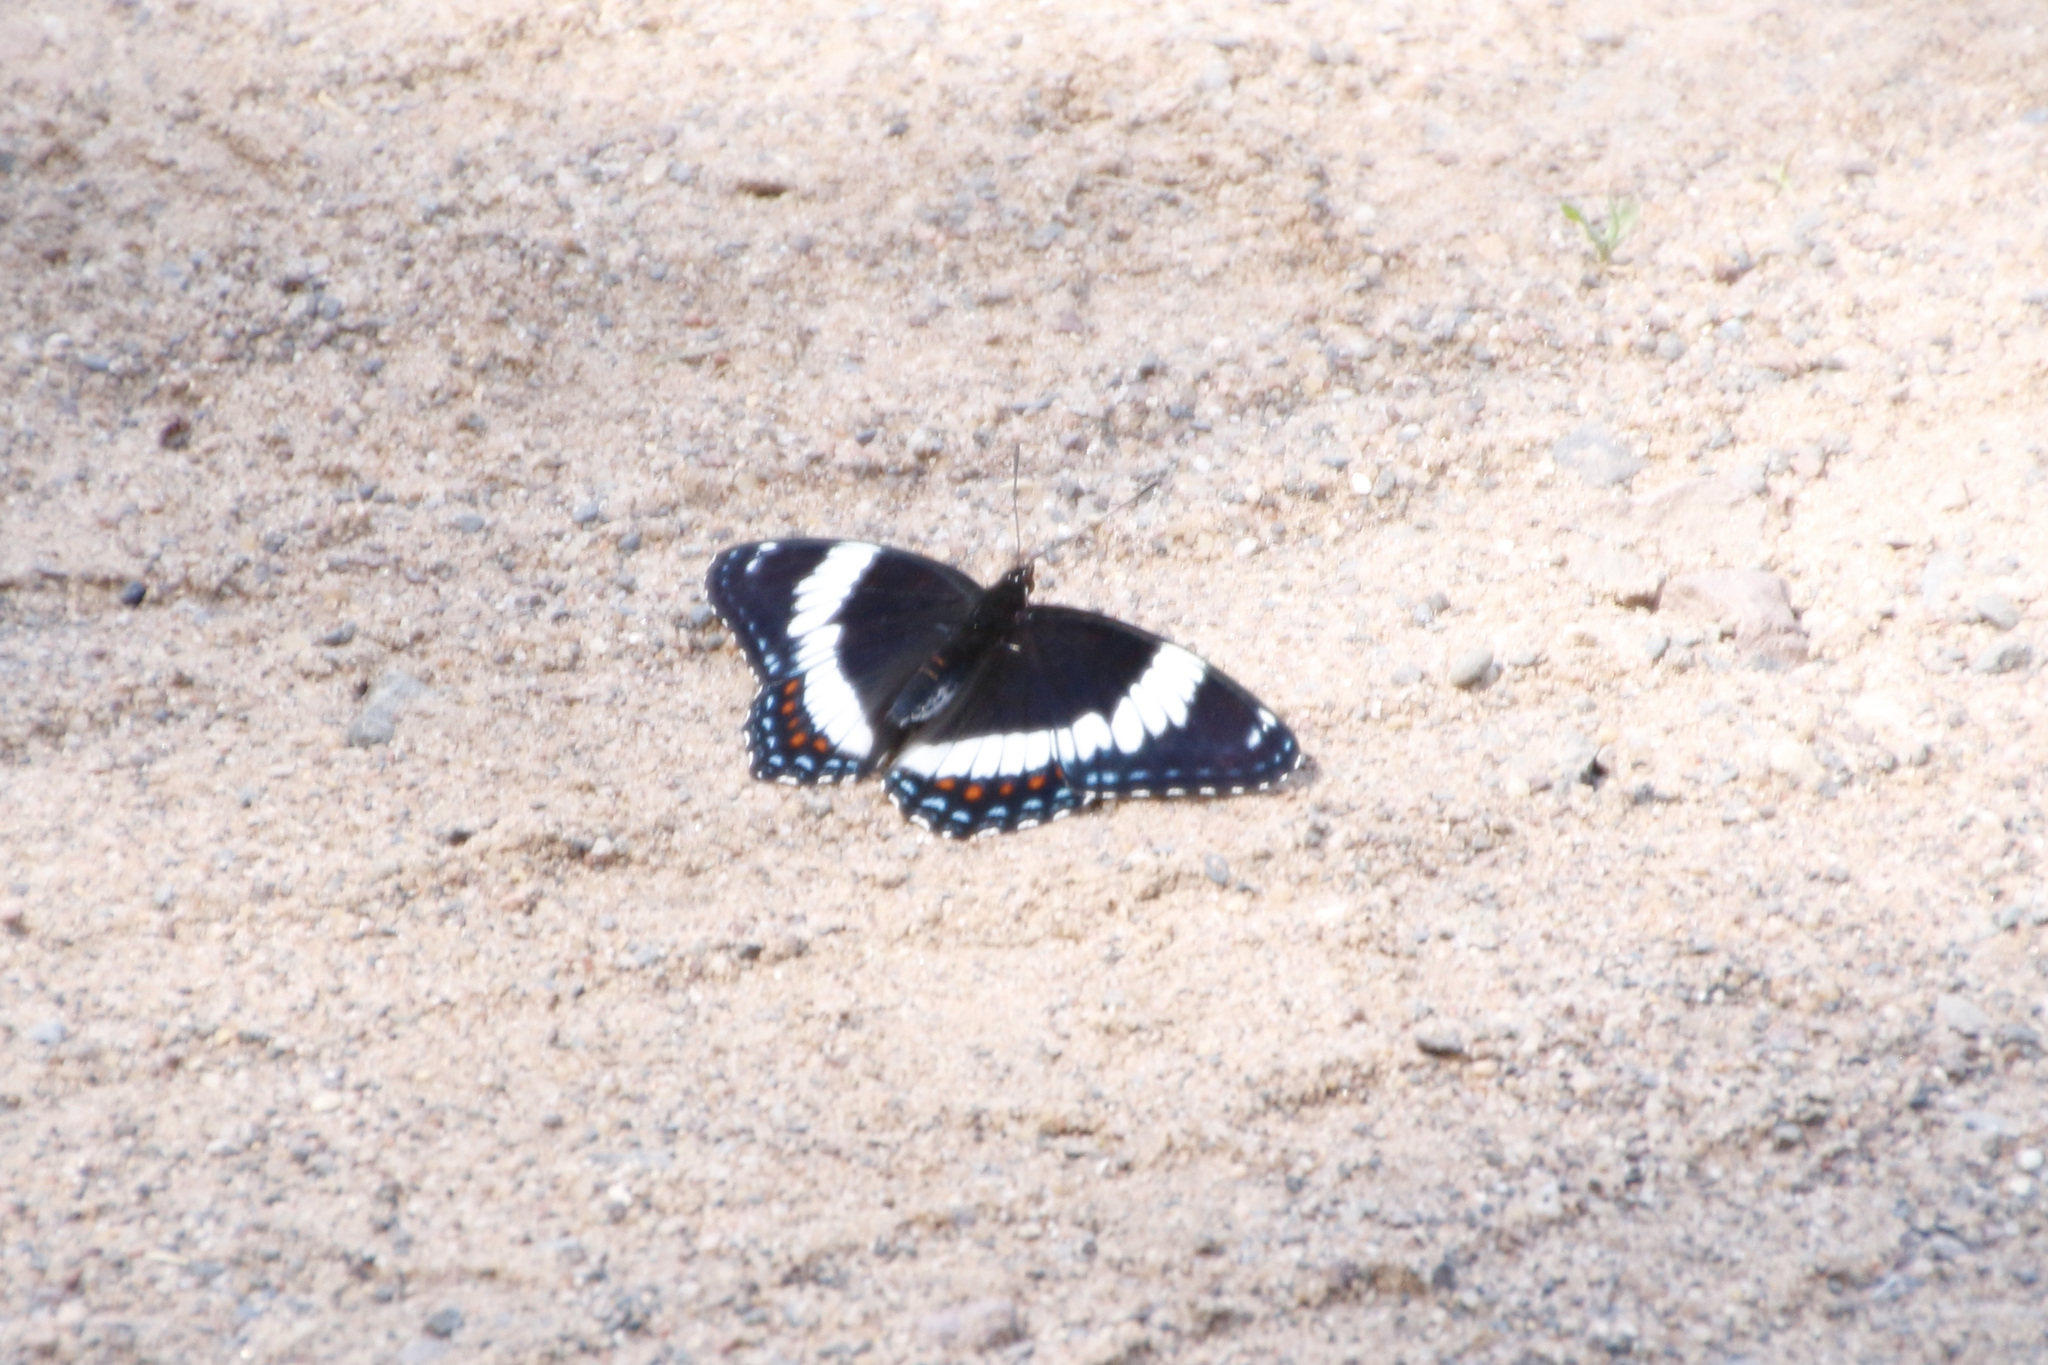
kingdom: Animalia
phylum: Arthropoda
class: Insecta
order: Lepidoptera
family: Nymphalidae
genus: Limenitis
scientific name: Limenitis arthemis
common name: Red-spotted admiral
